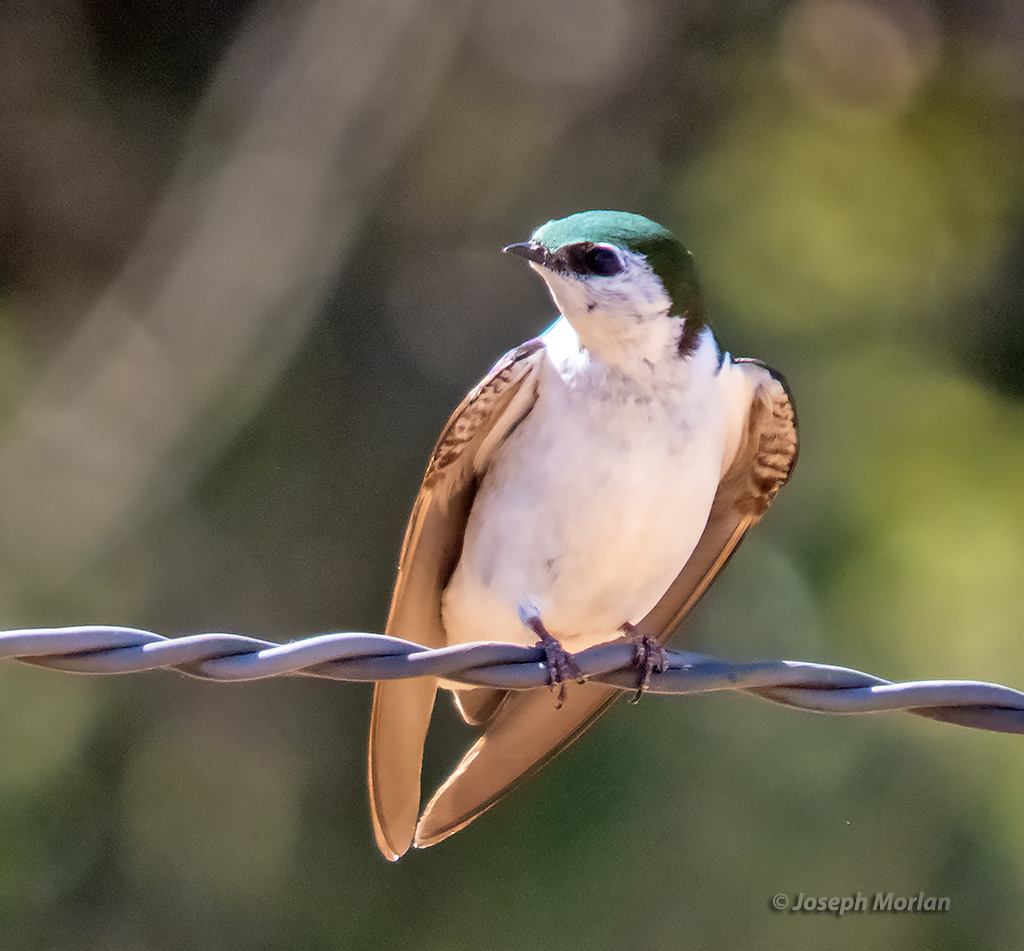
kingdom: Animalia
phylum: Chordata
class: Aves
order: Passeriformes
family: Hirundinidae
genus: Tachycineta
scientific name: Tachycineta thalassina
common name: Violet-green swallow
